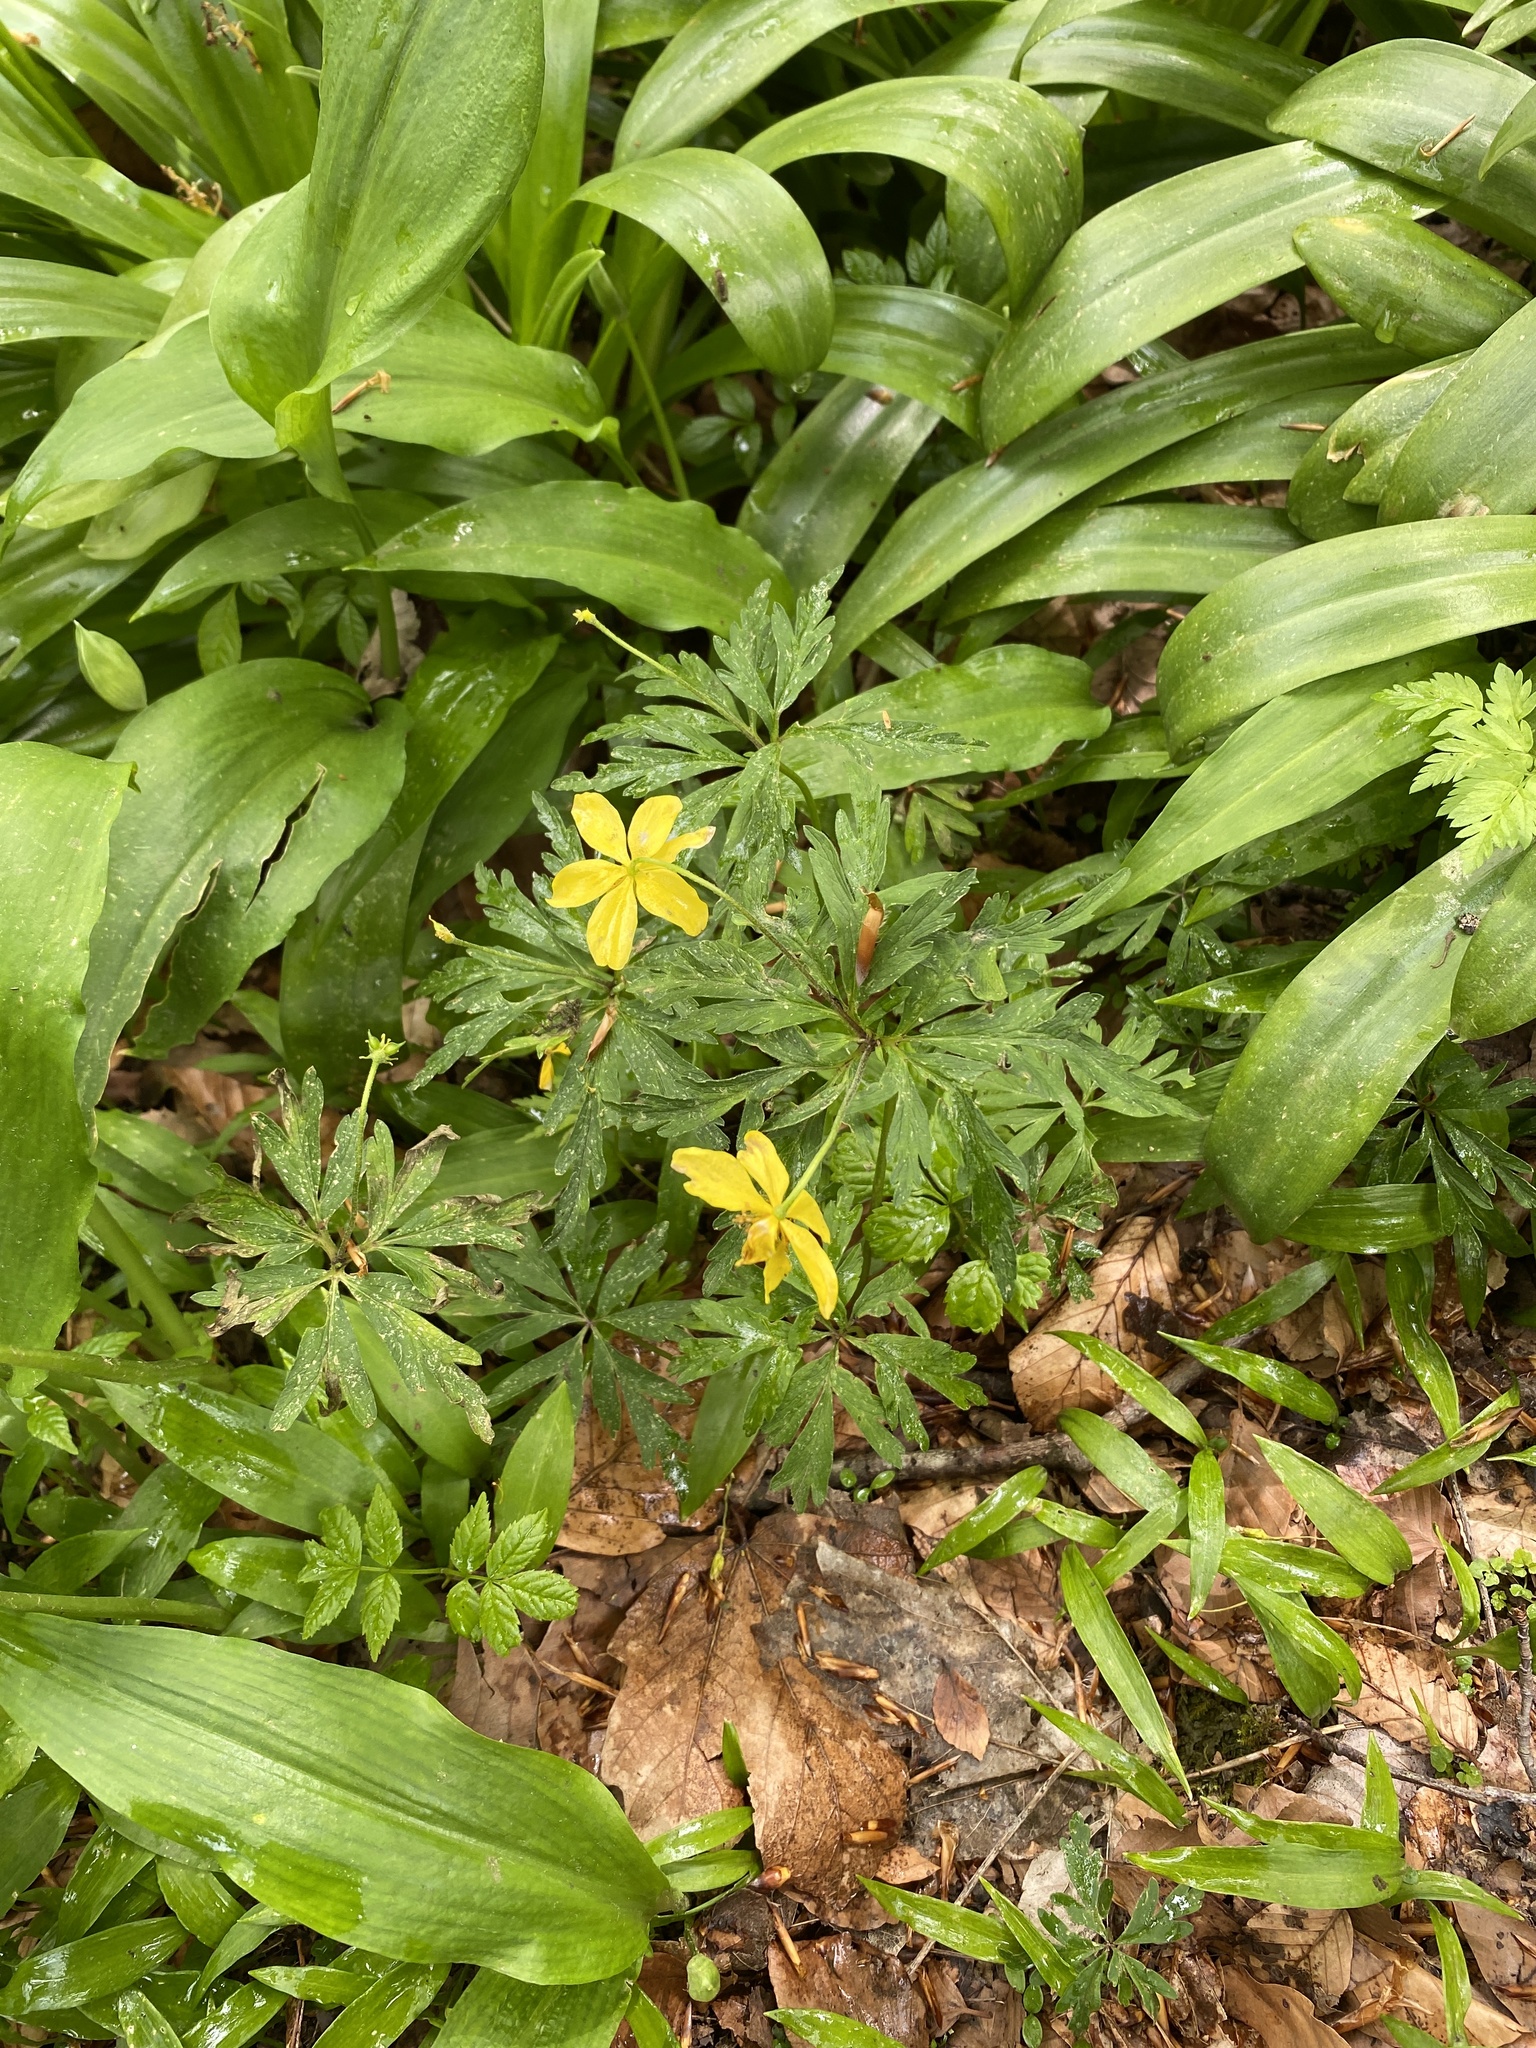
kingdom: Plantae
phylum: Tracheophyta
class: Magnoliopsida
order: Ranunculales
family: Ranunculaceae
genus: Anemone
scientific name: Anemone ranunculoides
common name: Yellow anemone
